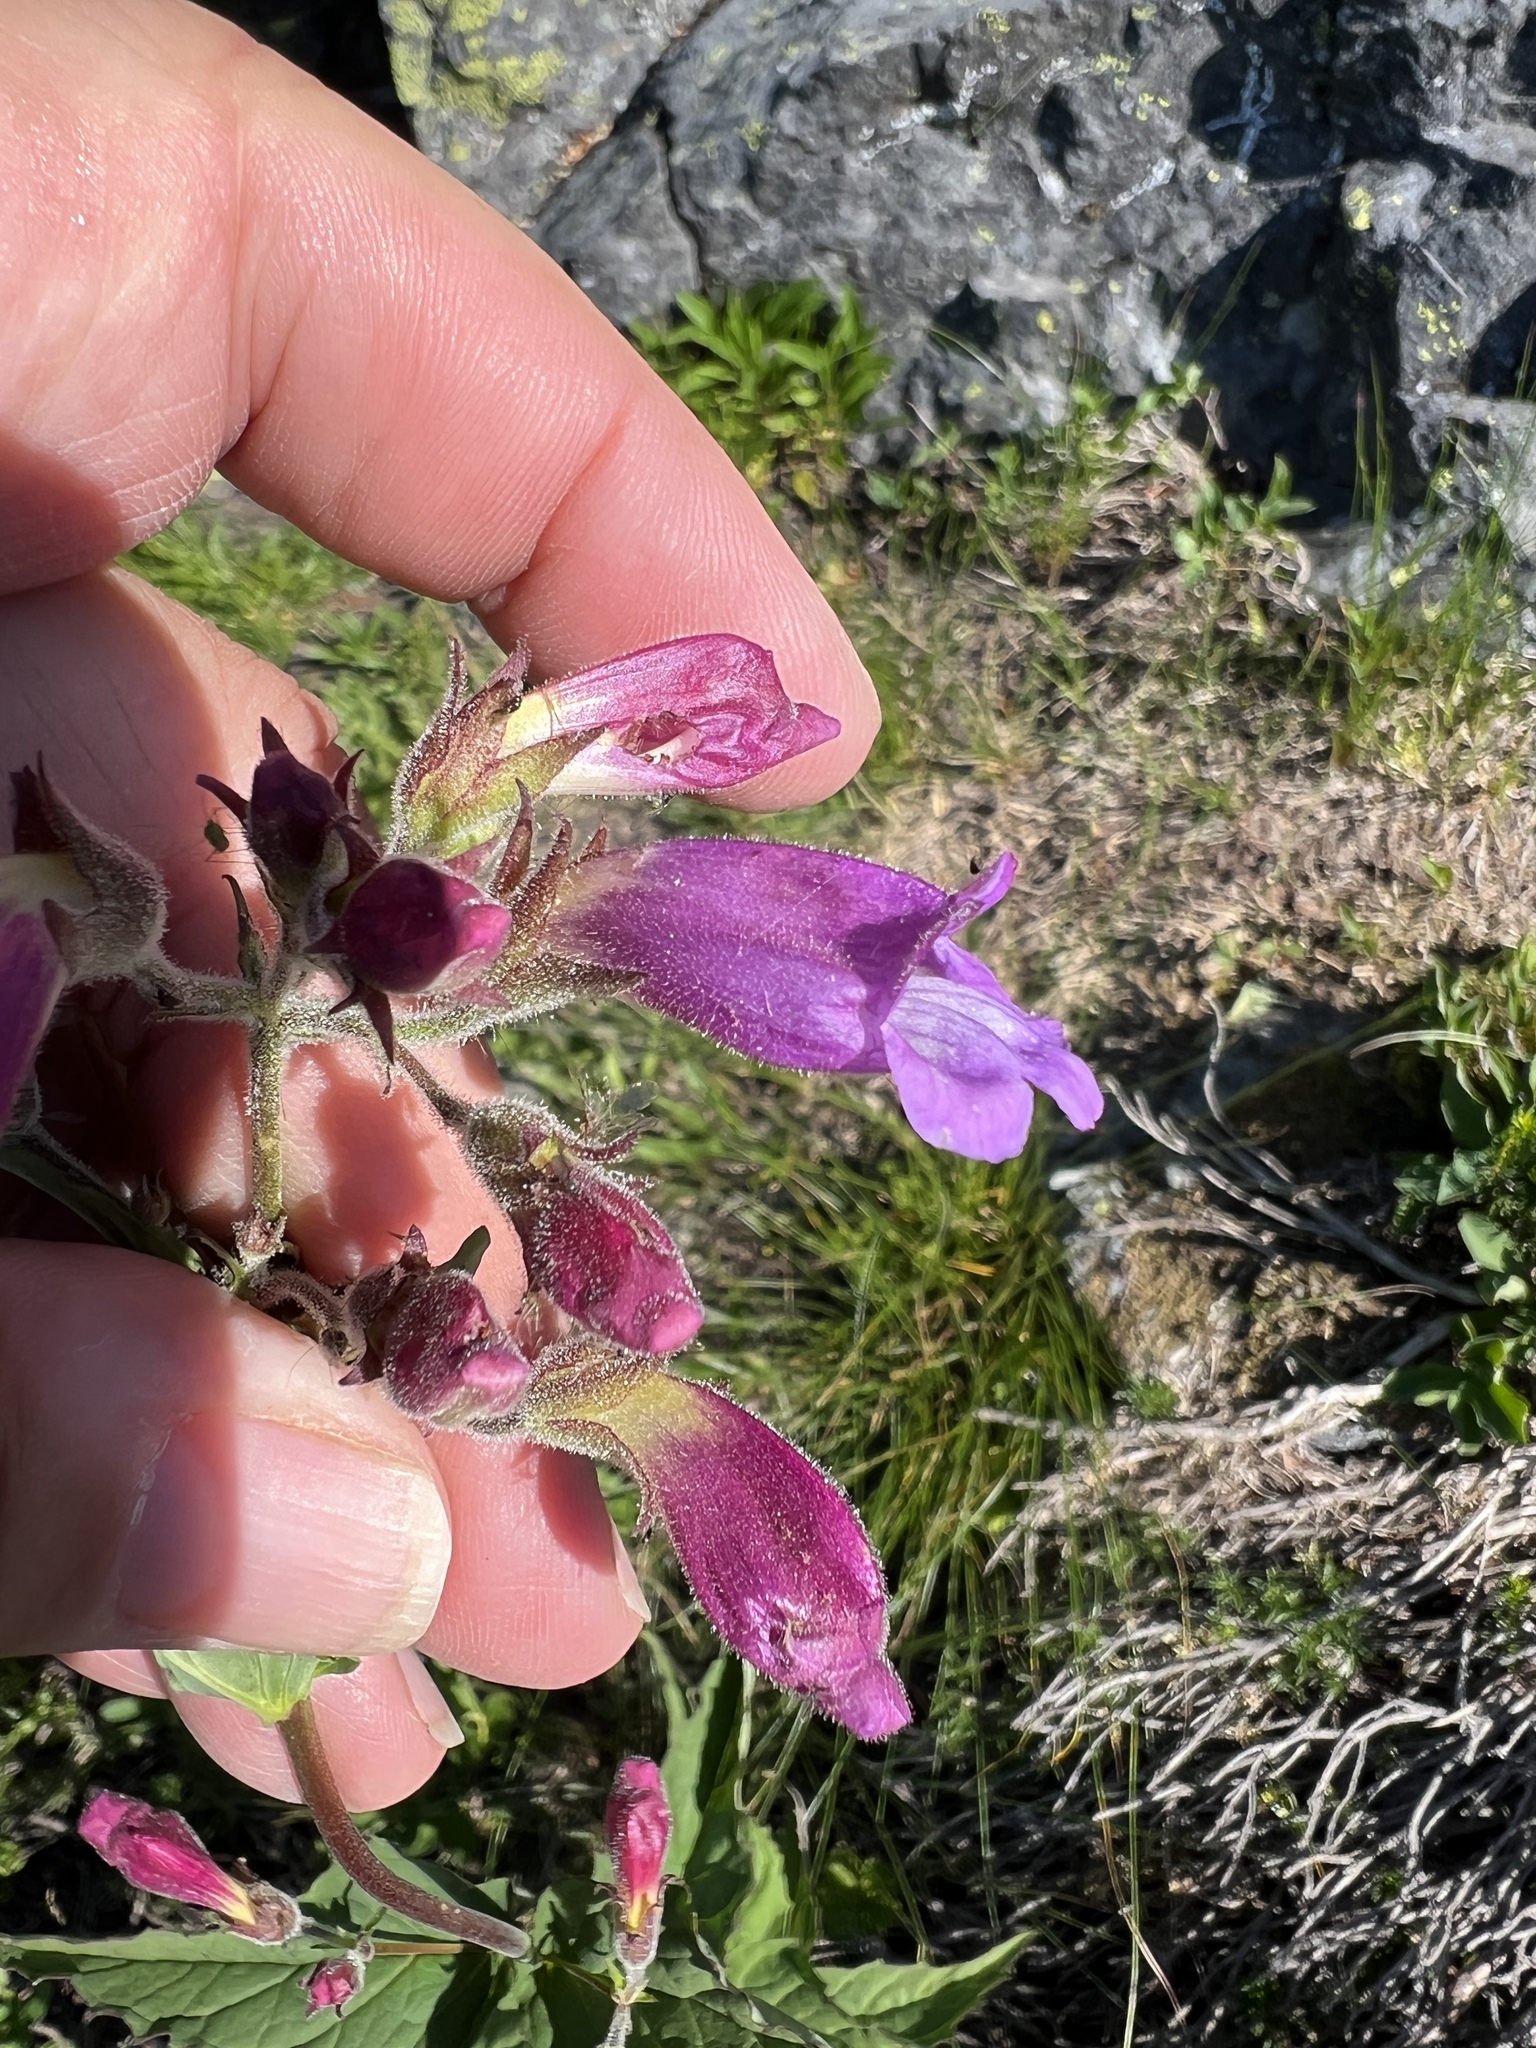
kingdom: Plantae
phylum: Tracheophyta
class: Magnoliopsida
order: Lamiales
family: Plantaginaceae
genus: Nothochelone
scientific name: Nothochelone nemorosa
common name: Woodland beardtongue
